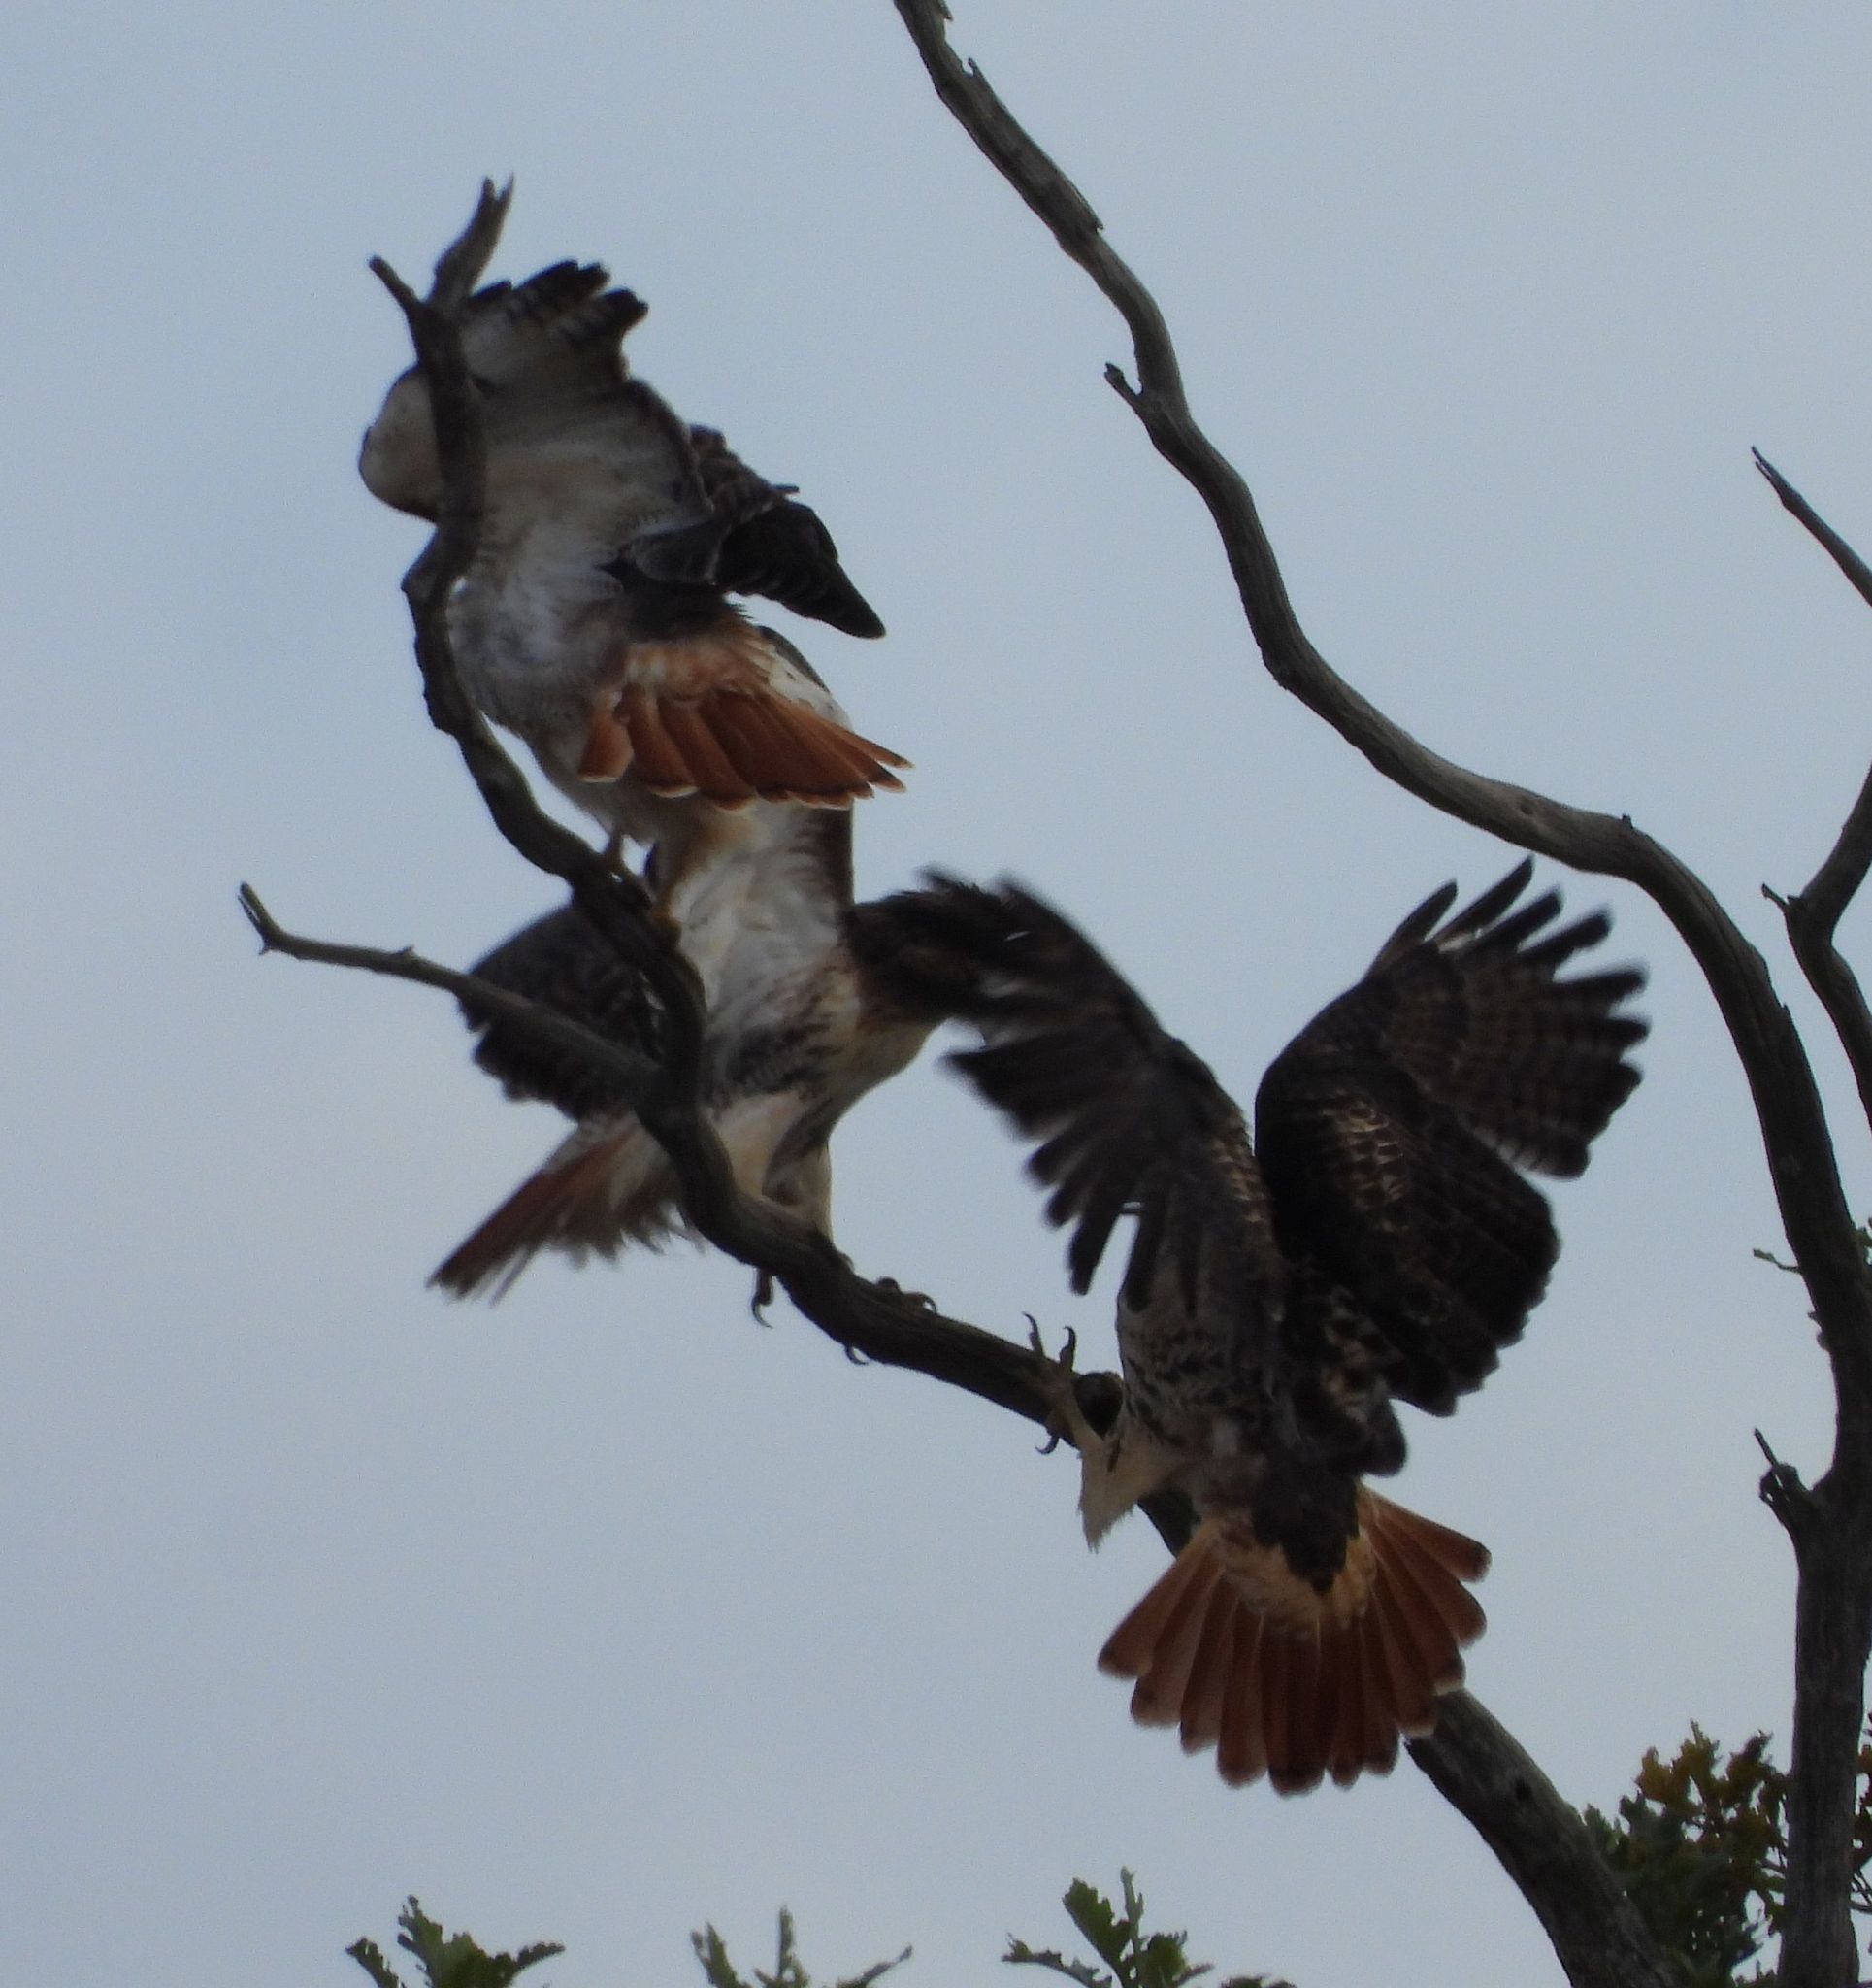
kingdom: Animalia
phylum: Chordata
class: Aves
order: Accipitriformes
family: Accipitridae
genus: Buteo
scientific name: Buteo jamaicensis
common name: Red-tailed hawk
